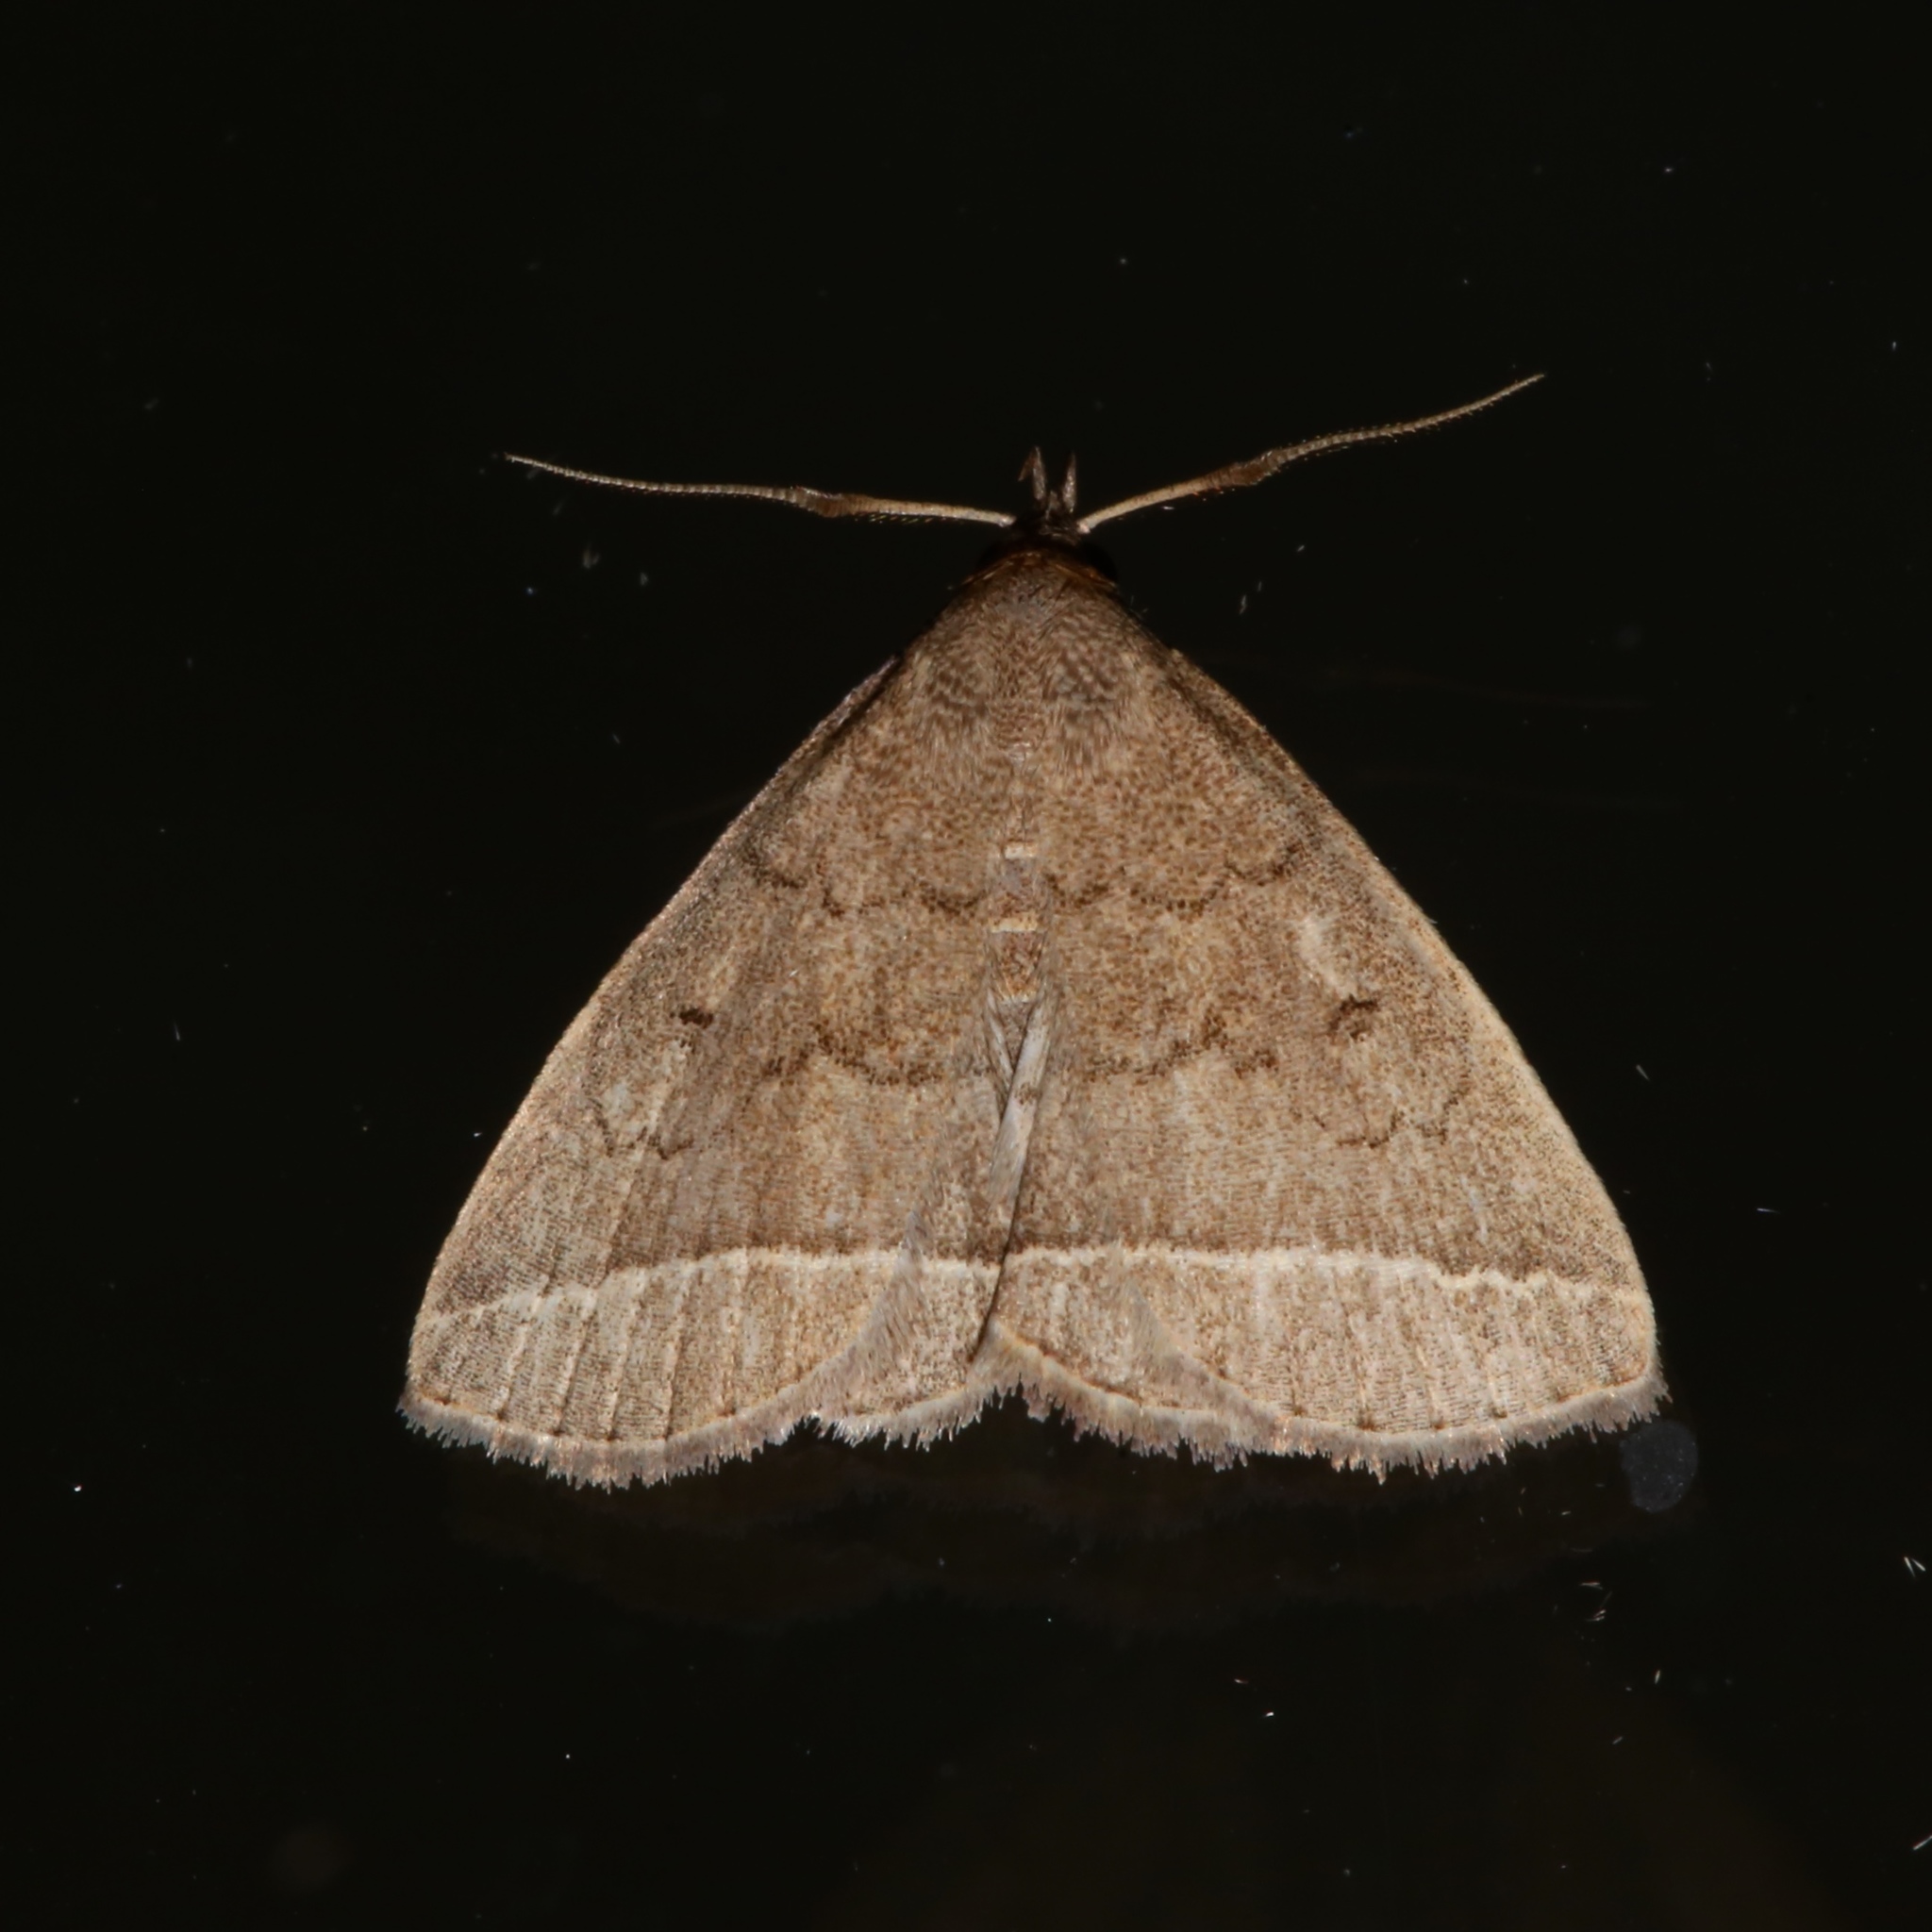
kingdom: Animalia
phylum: Arthropoda
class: Insecta
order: Lepidoptera
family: Erebidae
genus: Zanclognatha
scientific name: Zanclognatha jacchusalis
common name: Yellowish zanclognatha
